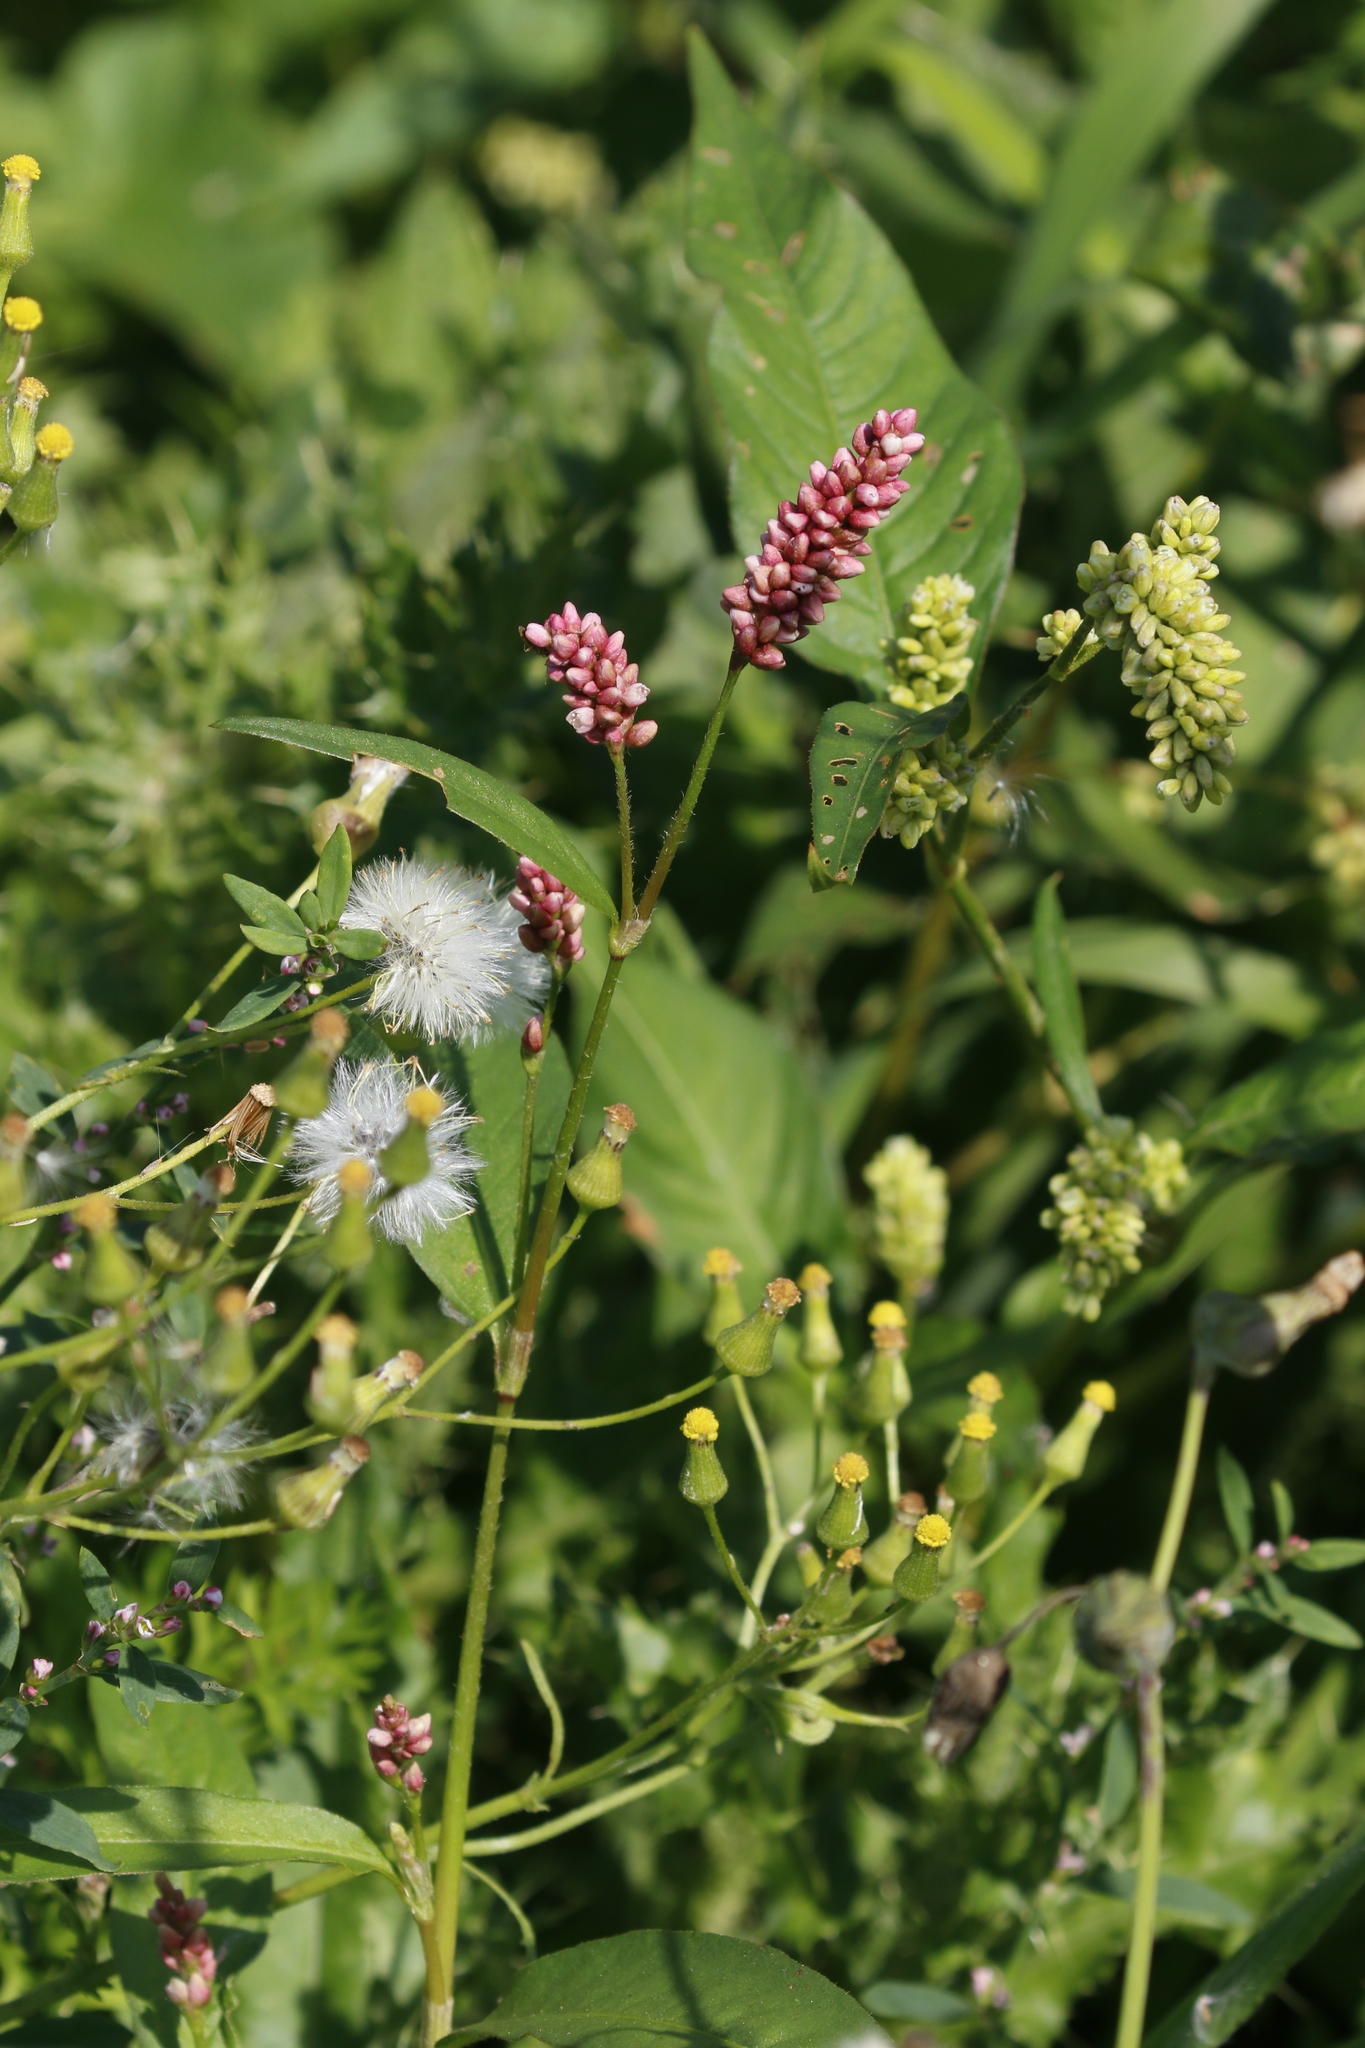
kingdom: Plantae
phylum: Tracheophyta
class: Magnoliopsida
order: Caryophyllales
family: Polygonaceae
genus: Persicaria
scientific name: Persicaria maculosa
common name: Redshank
